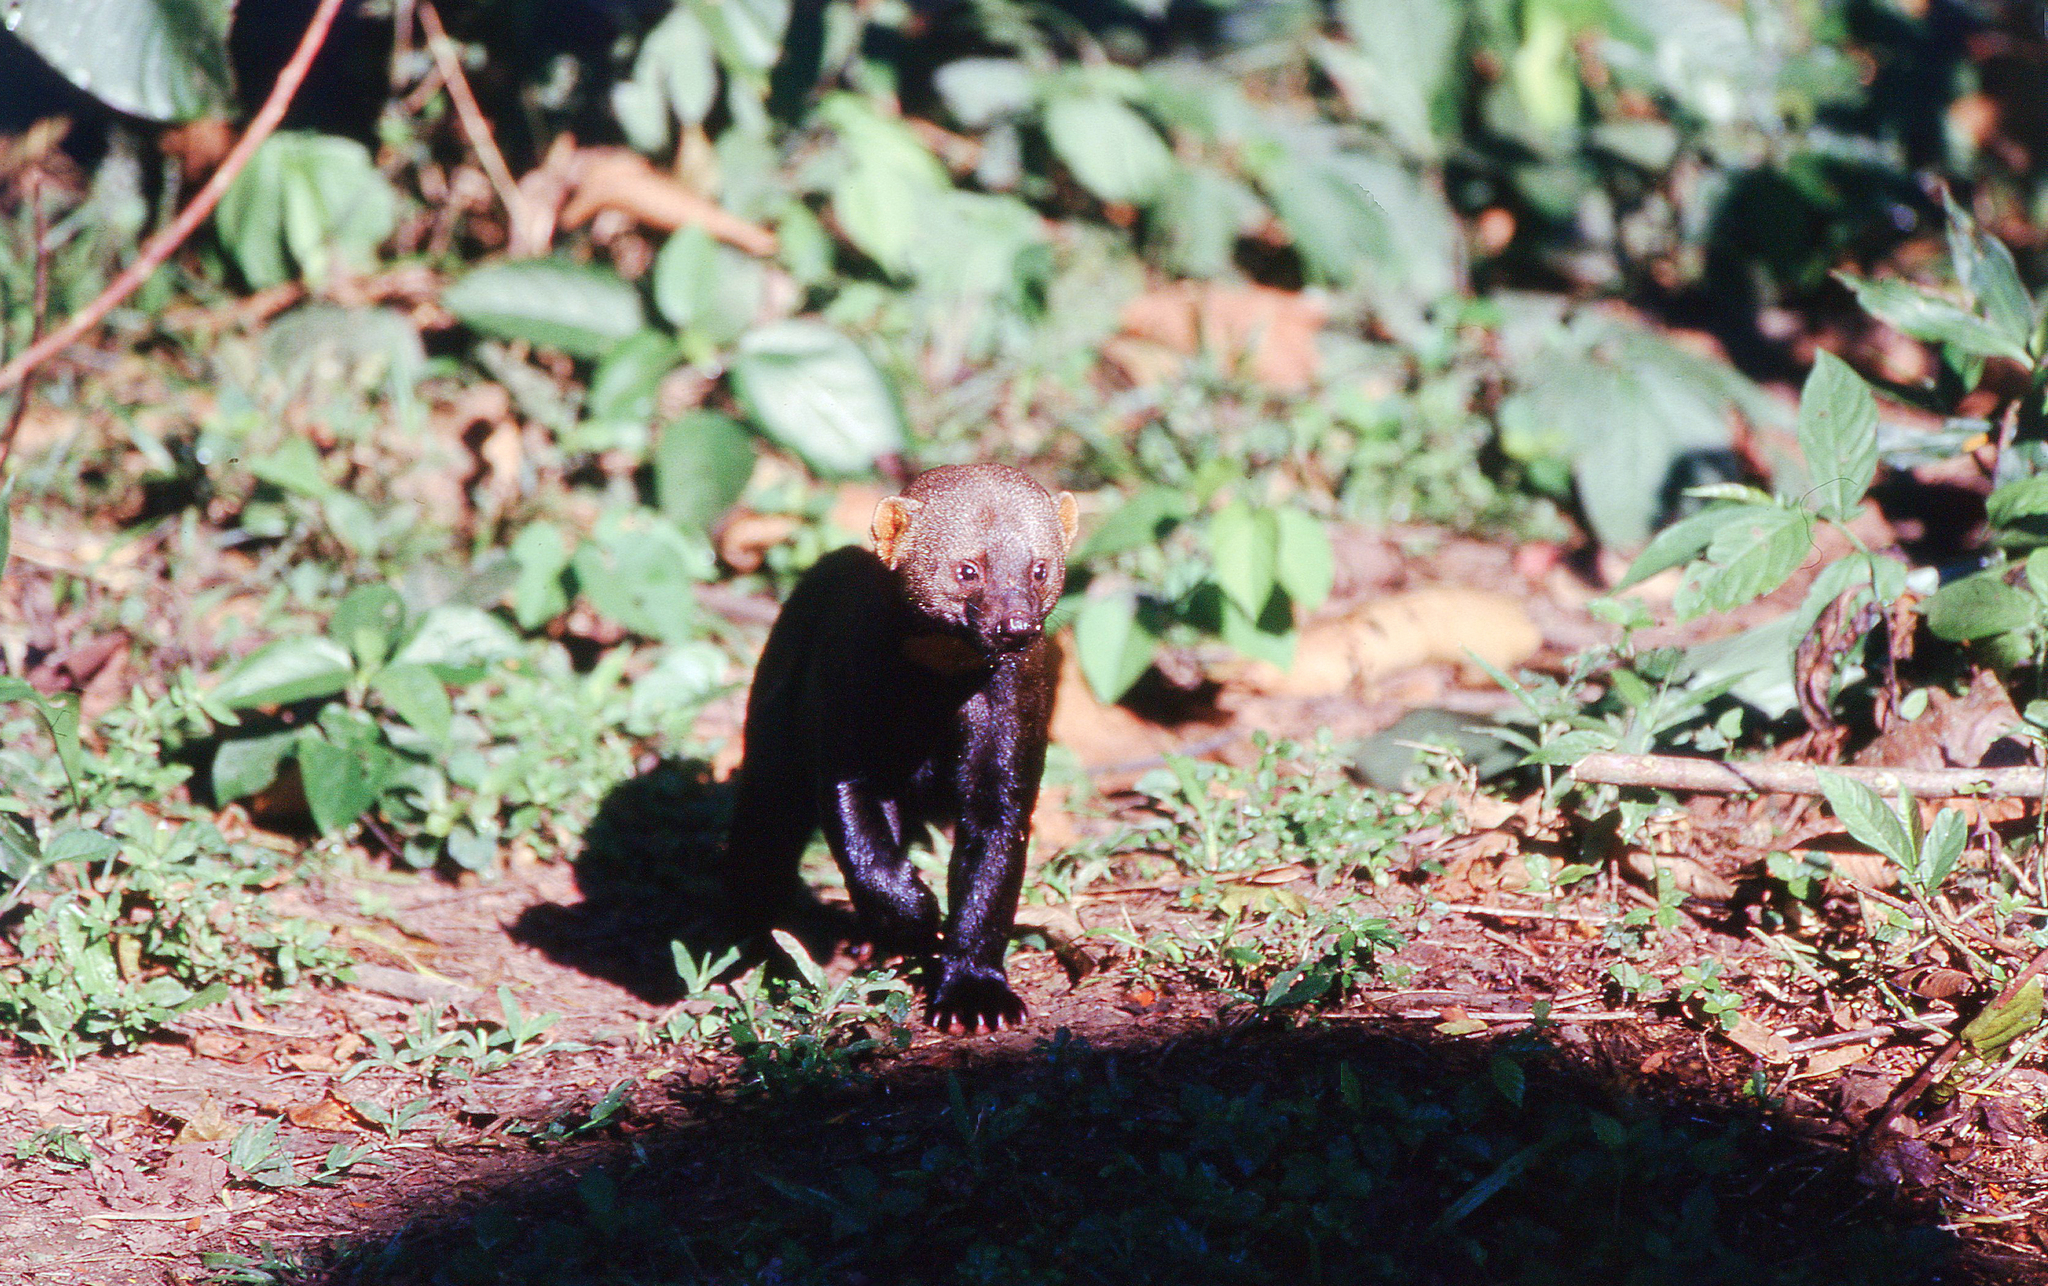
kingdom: Animalia
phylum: Chordata
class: Mammalia
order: Carnivora
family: Mustelidae
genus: Eira
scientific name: Eira barbara
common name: Tayra
